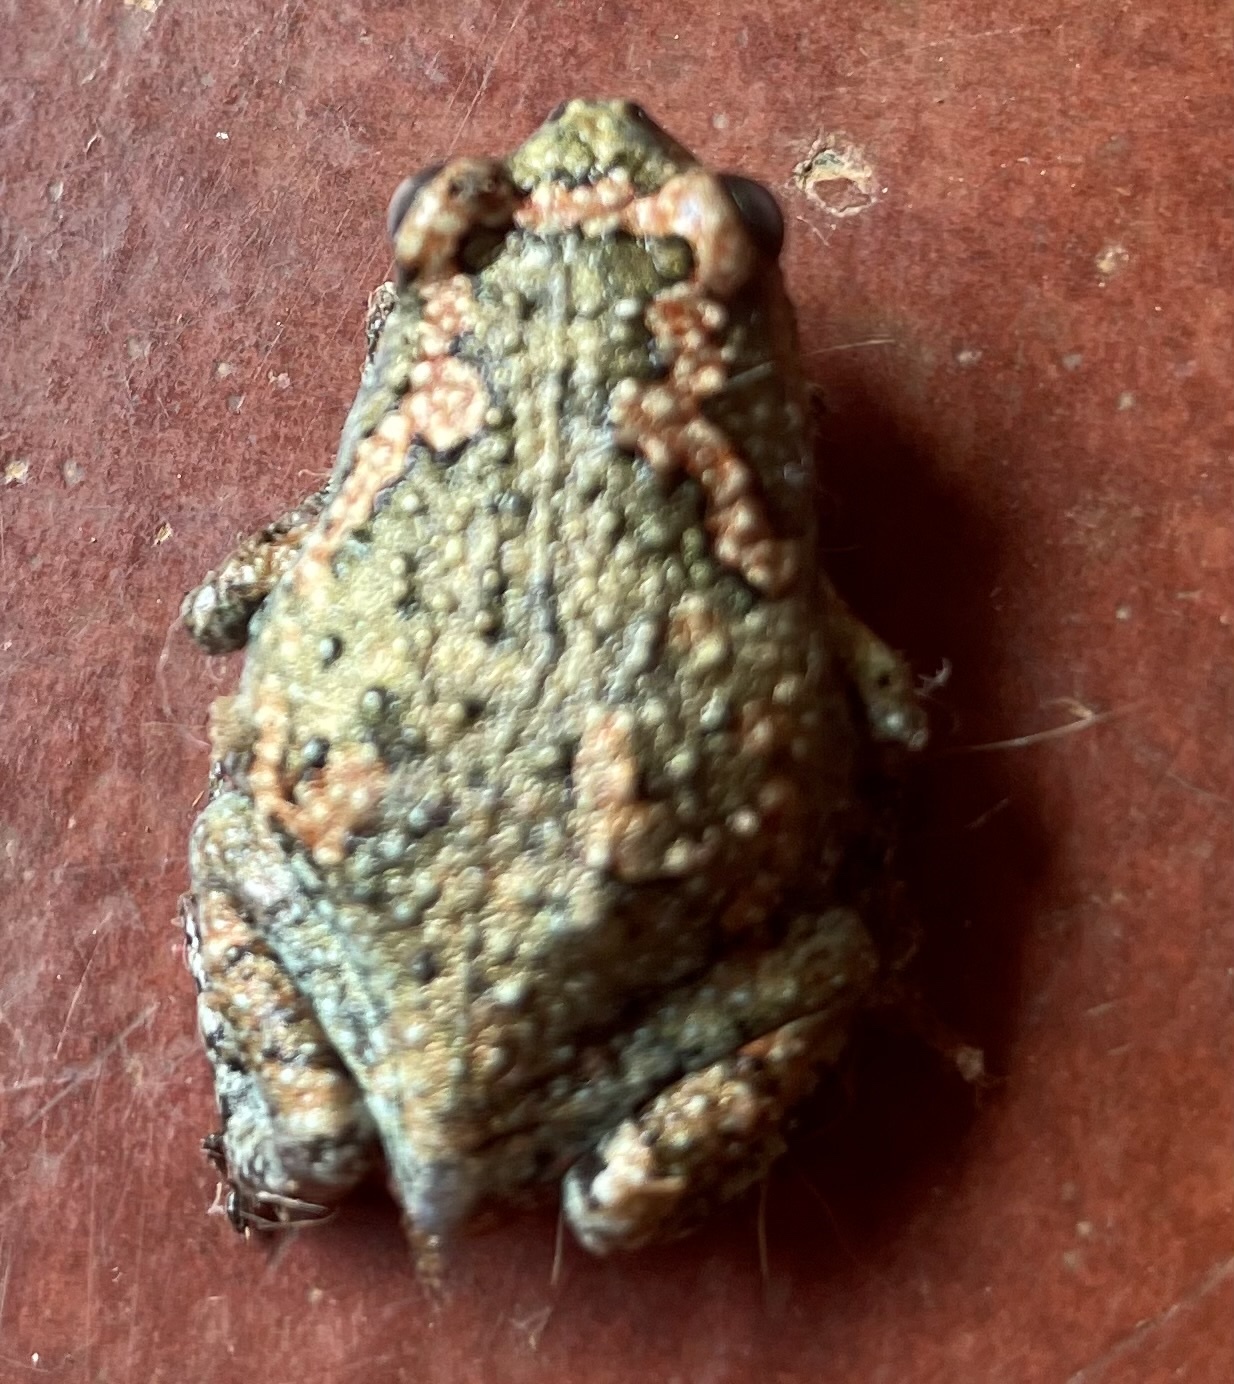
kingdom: Animalia
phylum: Chordata
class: Amphibia
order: Anura
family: Microhylidae
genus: Uperodon
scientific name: Uperodon taprobanicus
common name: Ceylon kaloula
